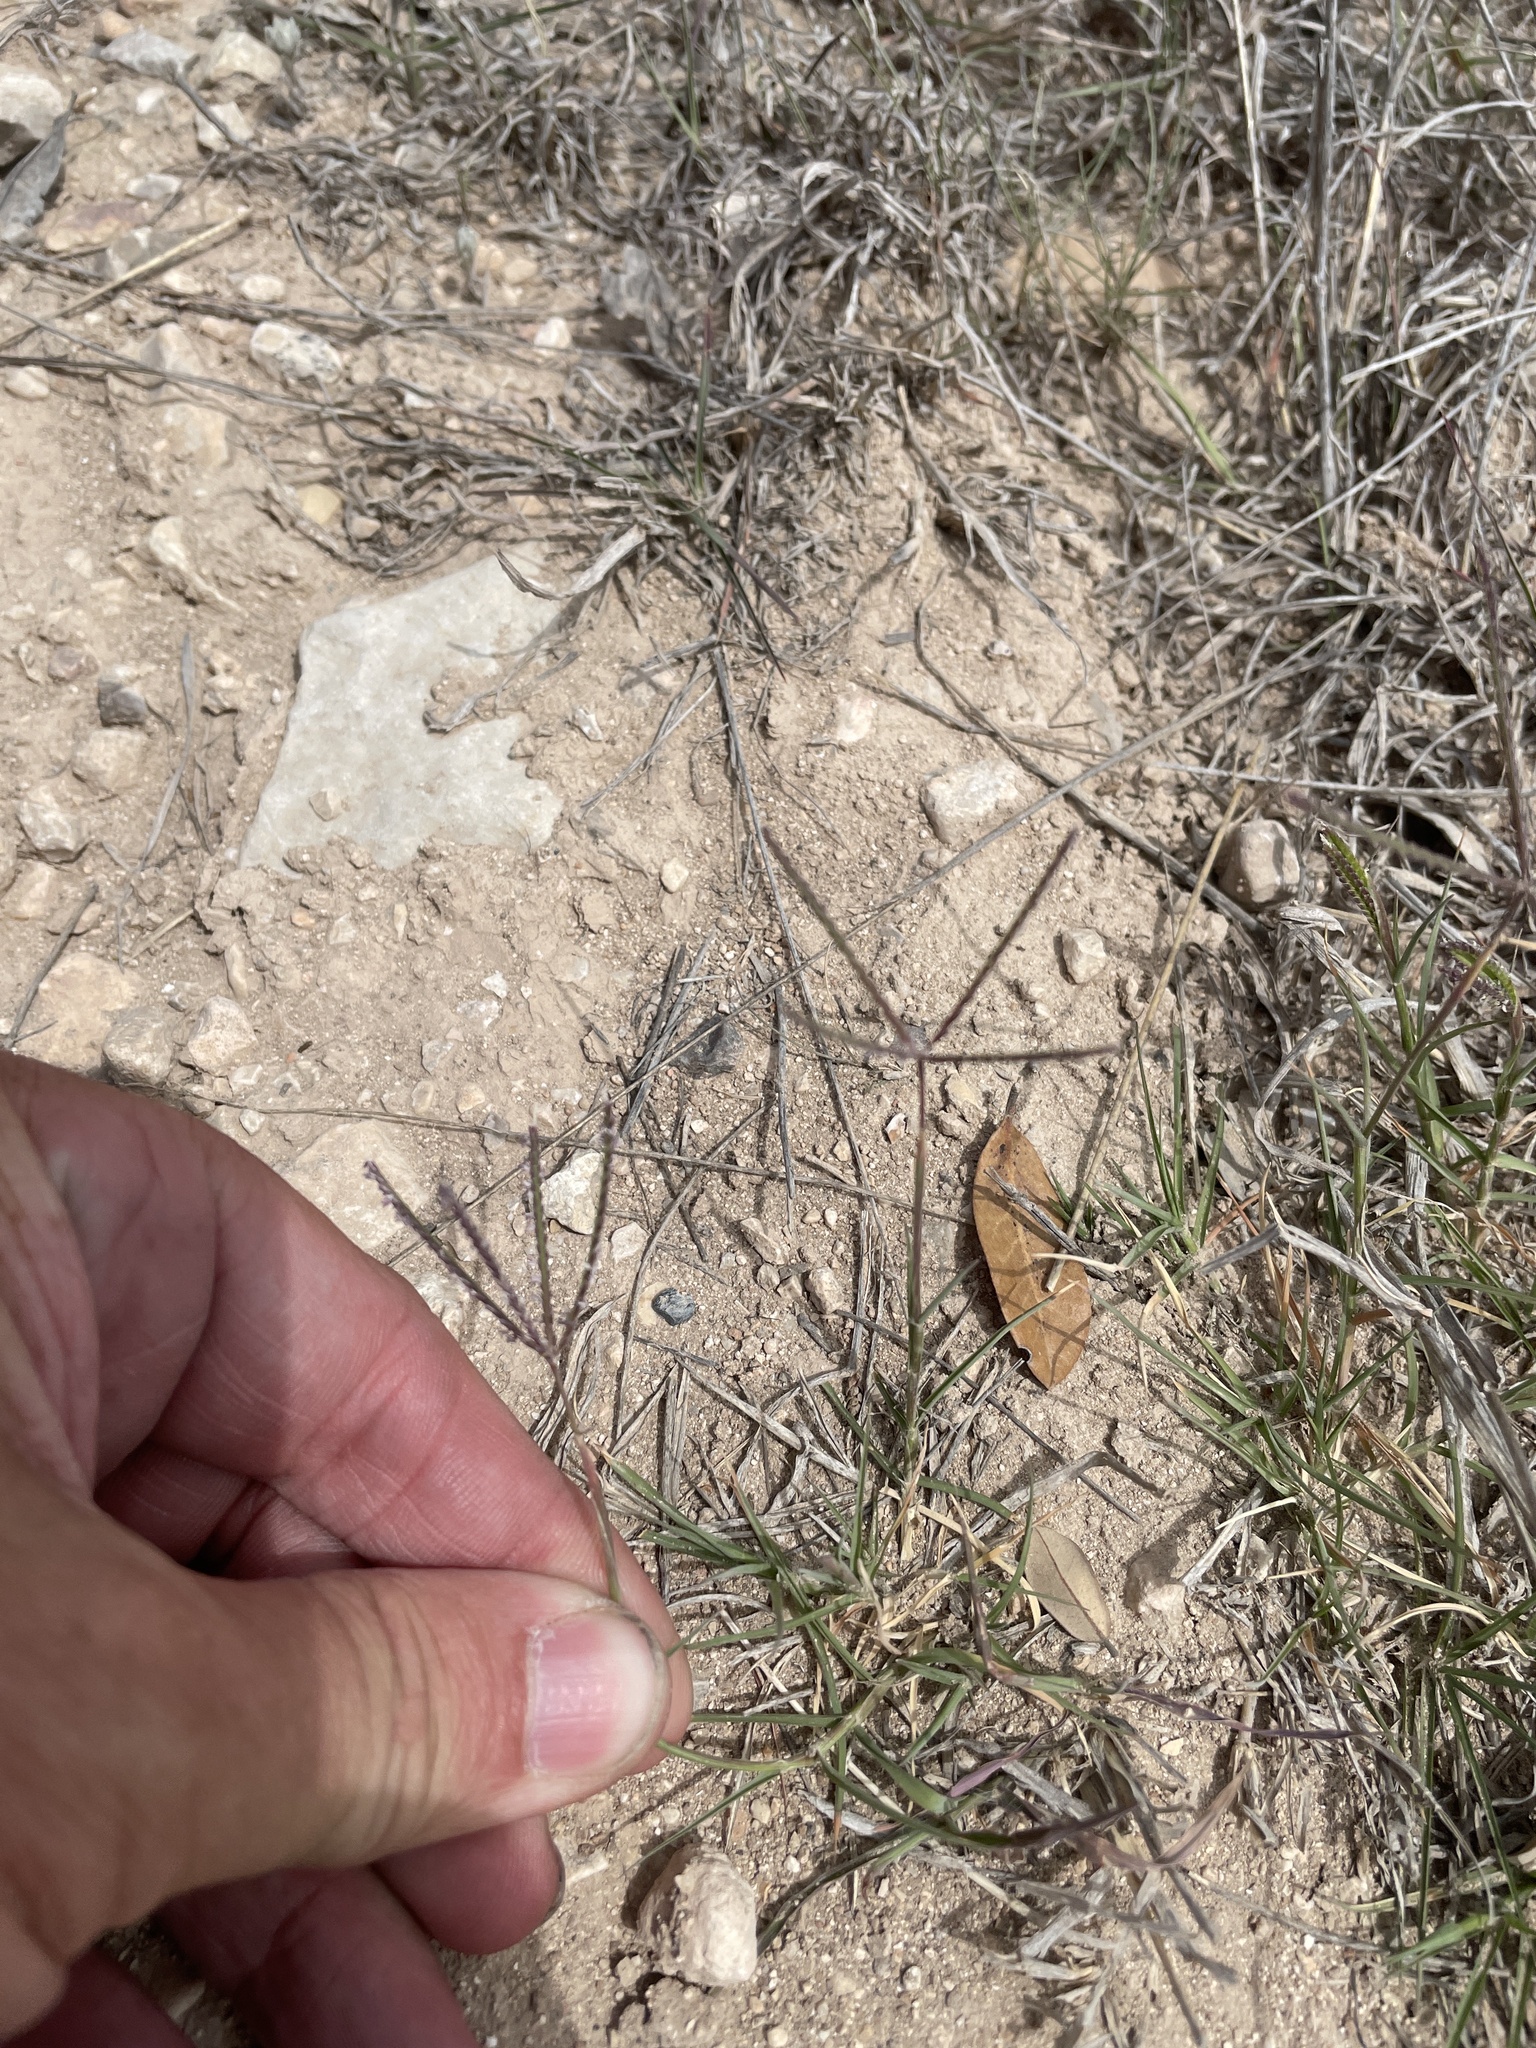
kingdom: Plantae
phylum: Tracheophyta
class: Liliopsida
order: Poales
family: Poaceae
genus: Cynodon
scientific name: Cynodon dactylon
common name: Bermuda grass
